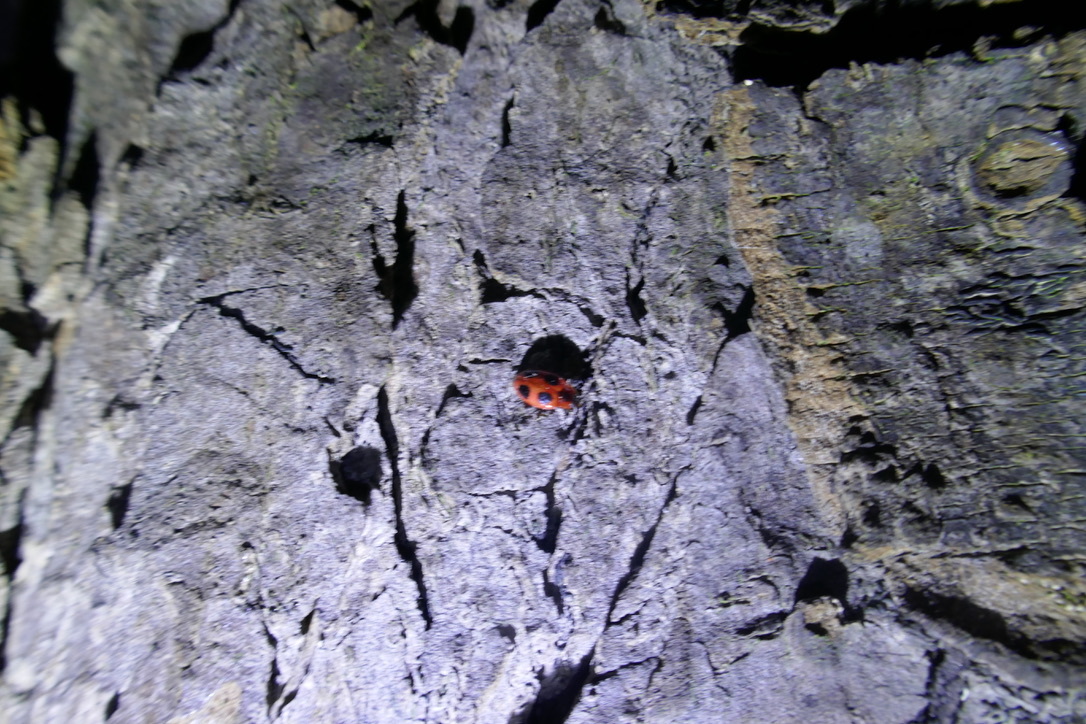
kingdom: Animalia
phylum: Arthropoda
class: Insecta
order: Coleoptera
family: Endomychidae
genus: Endomychus
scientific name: Endomychus coccineus
